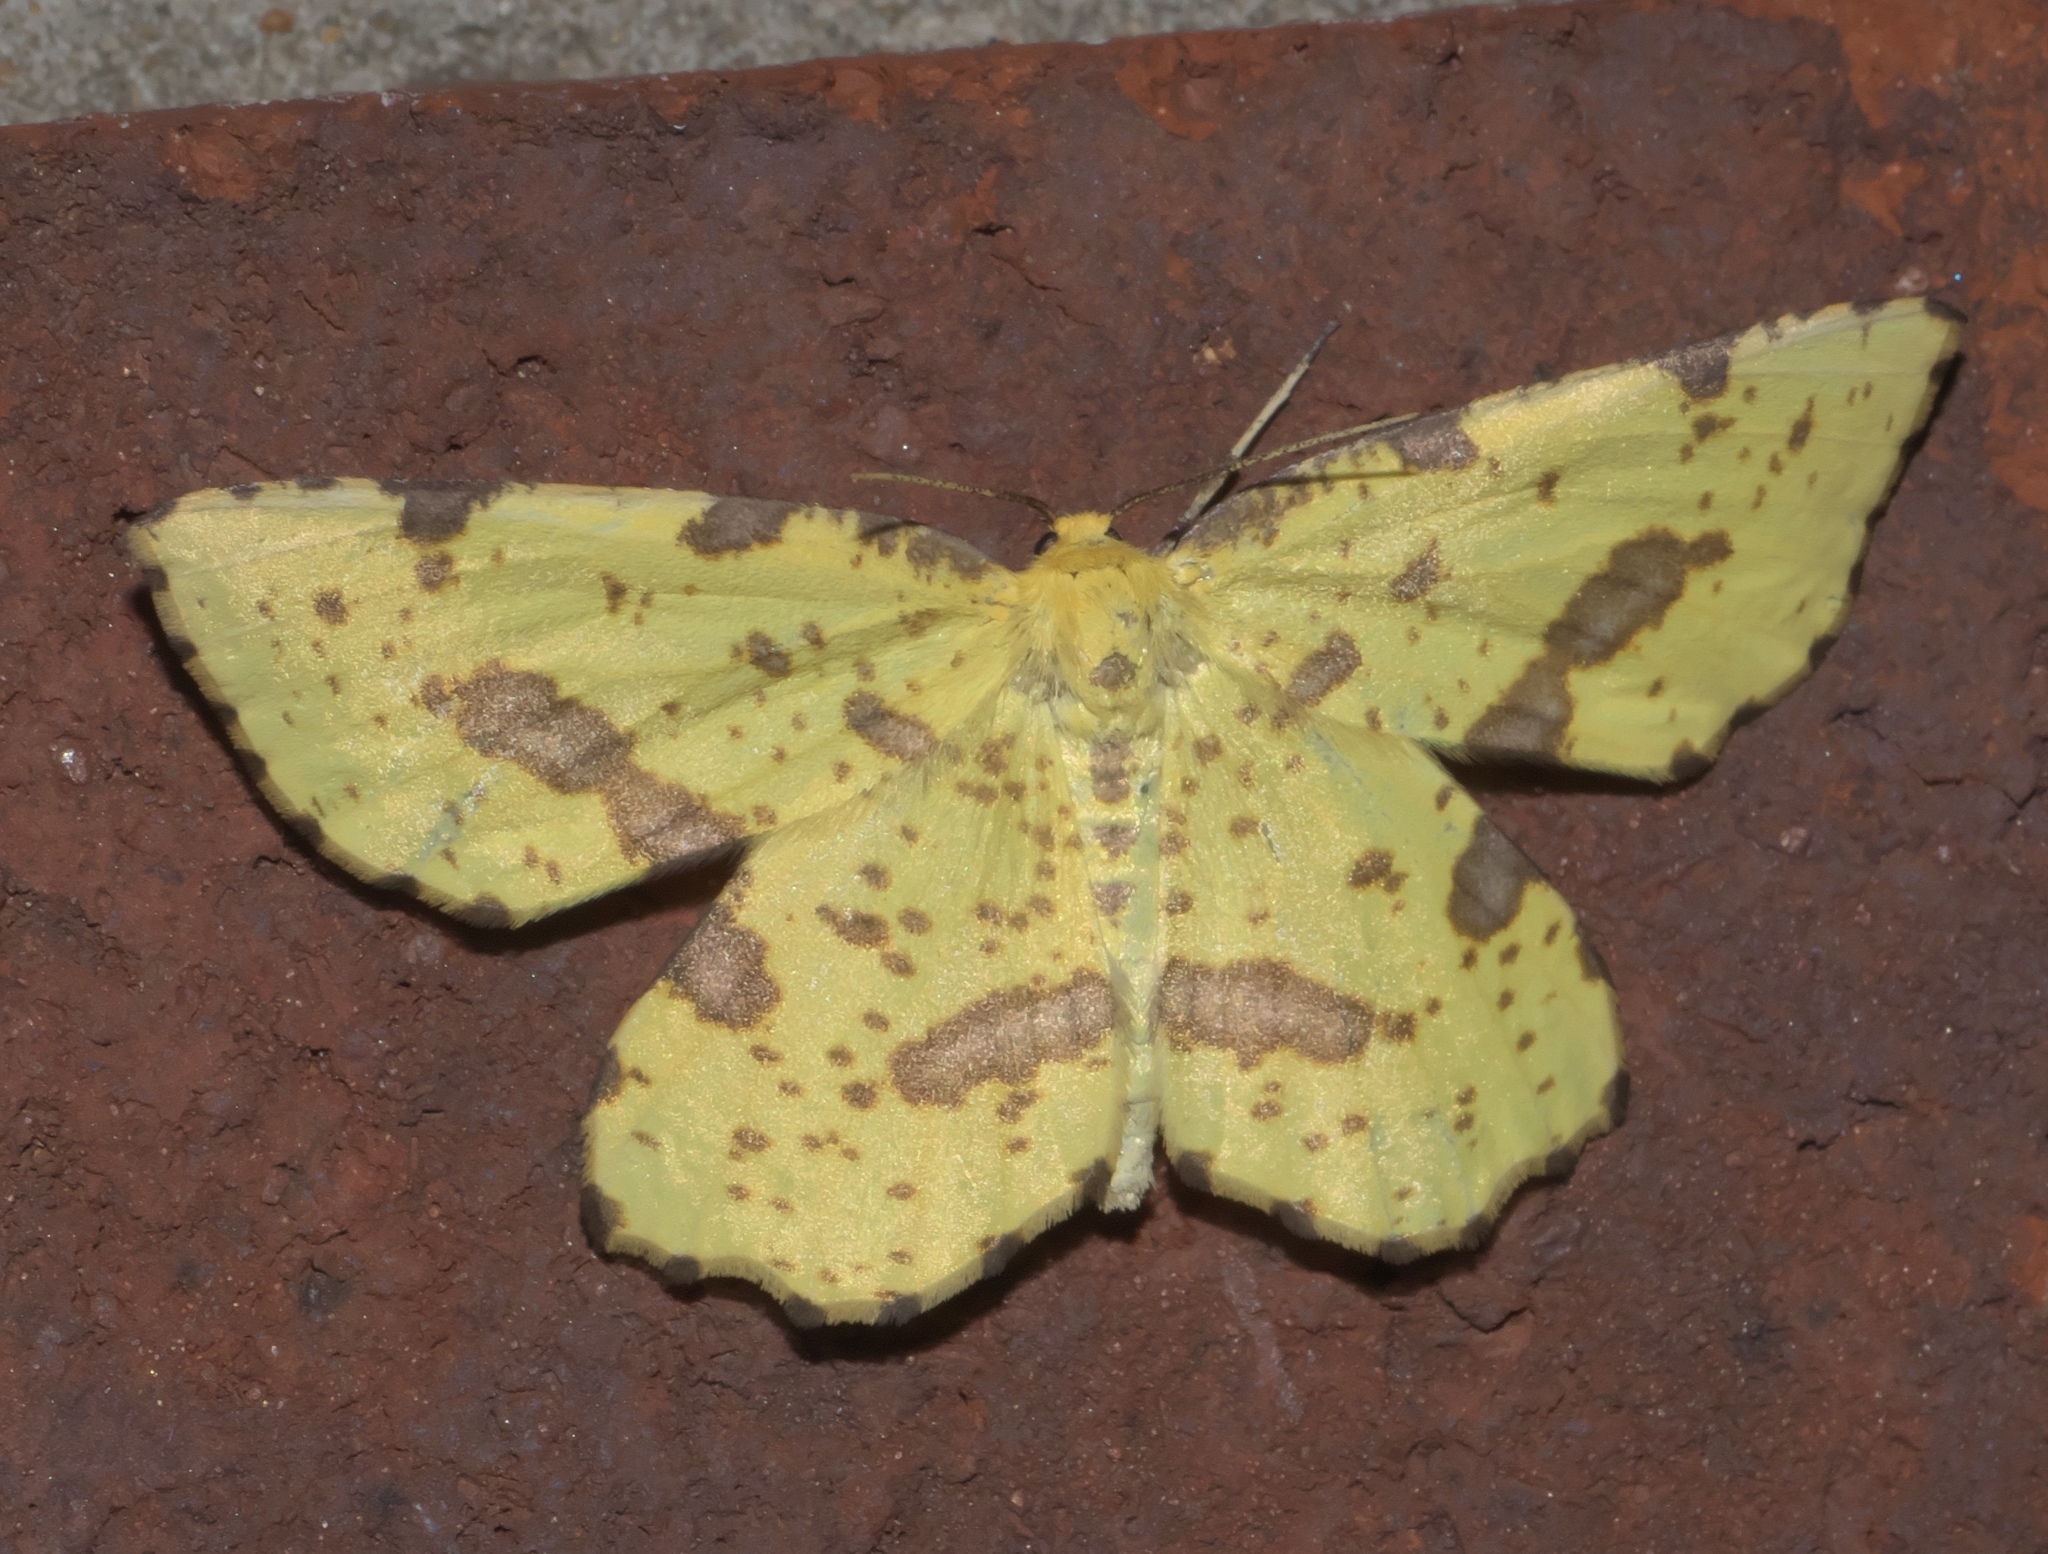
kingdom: Animalia
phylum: Arthropoda
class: Insecta
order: Lepidoptera
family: Geometridae
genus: Xanthotype
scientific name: Xanthotype
